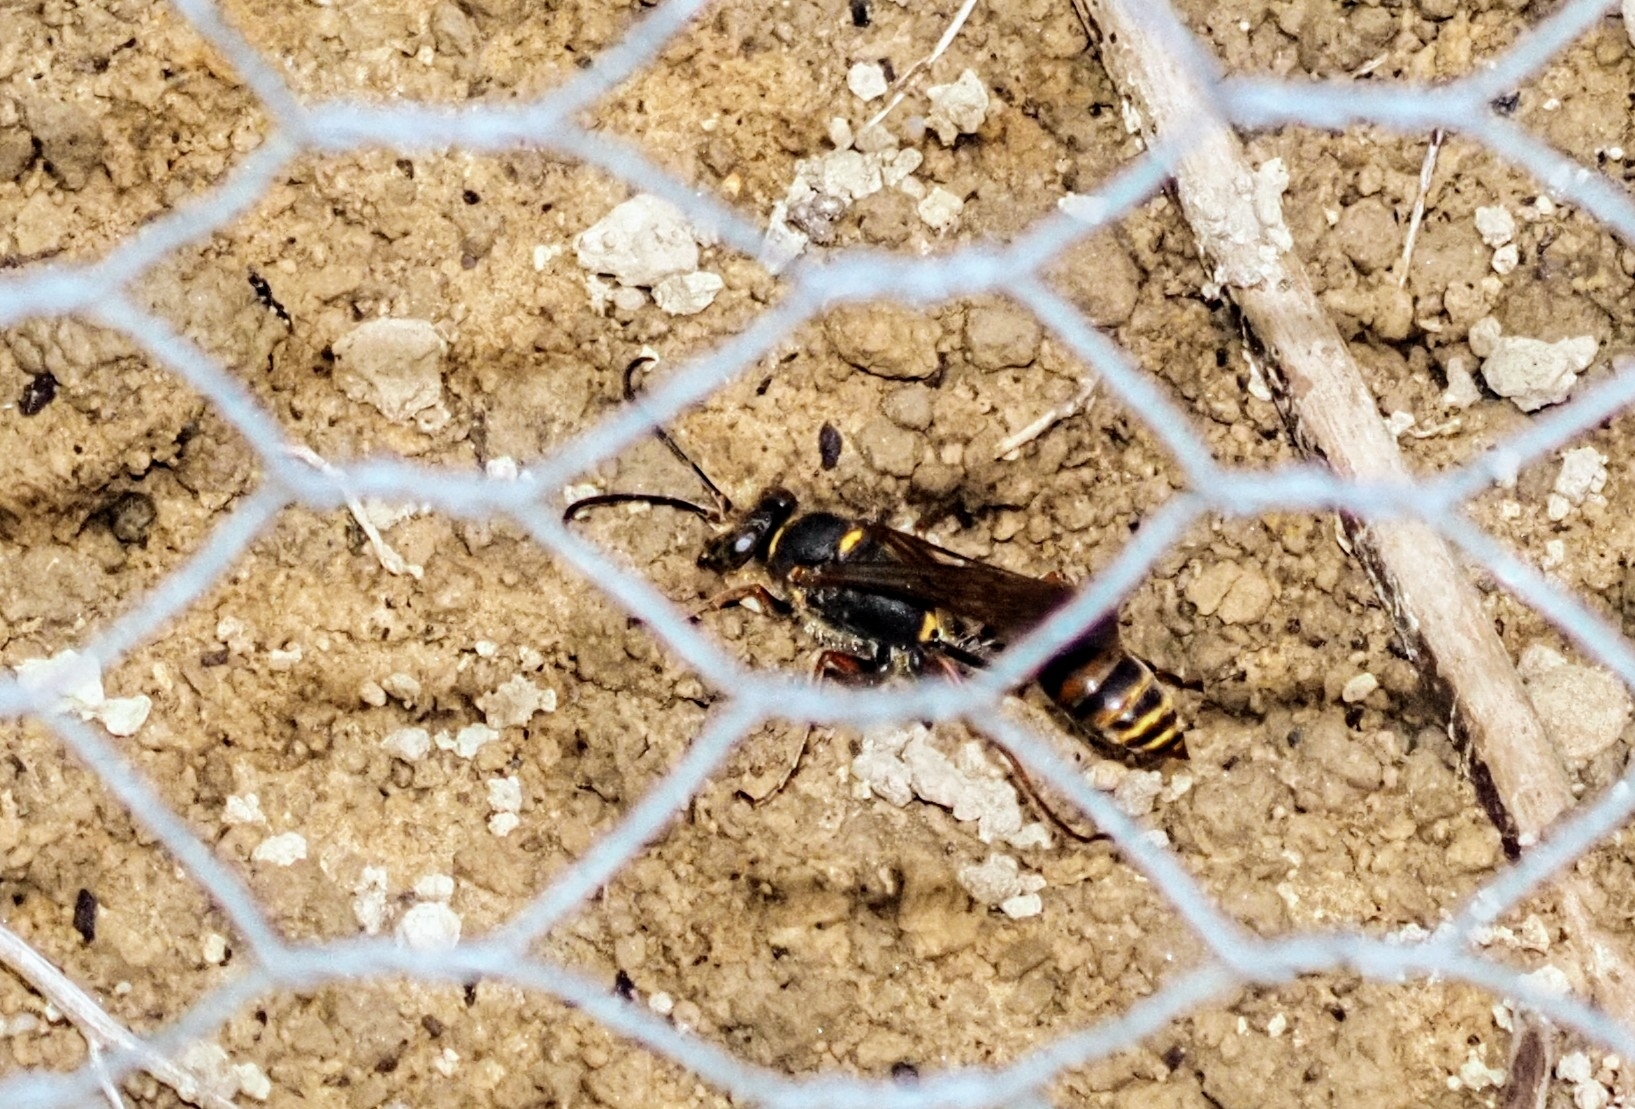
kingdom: Animalia
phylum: Arthropoda
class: Insecta
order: Hymenoptera
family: Sphecidae
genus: Sceliphron
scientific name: Sceliphron curvatum
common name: Pèlopèe
